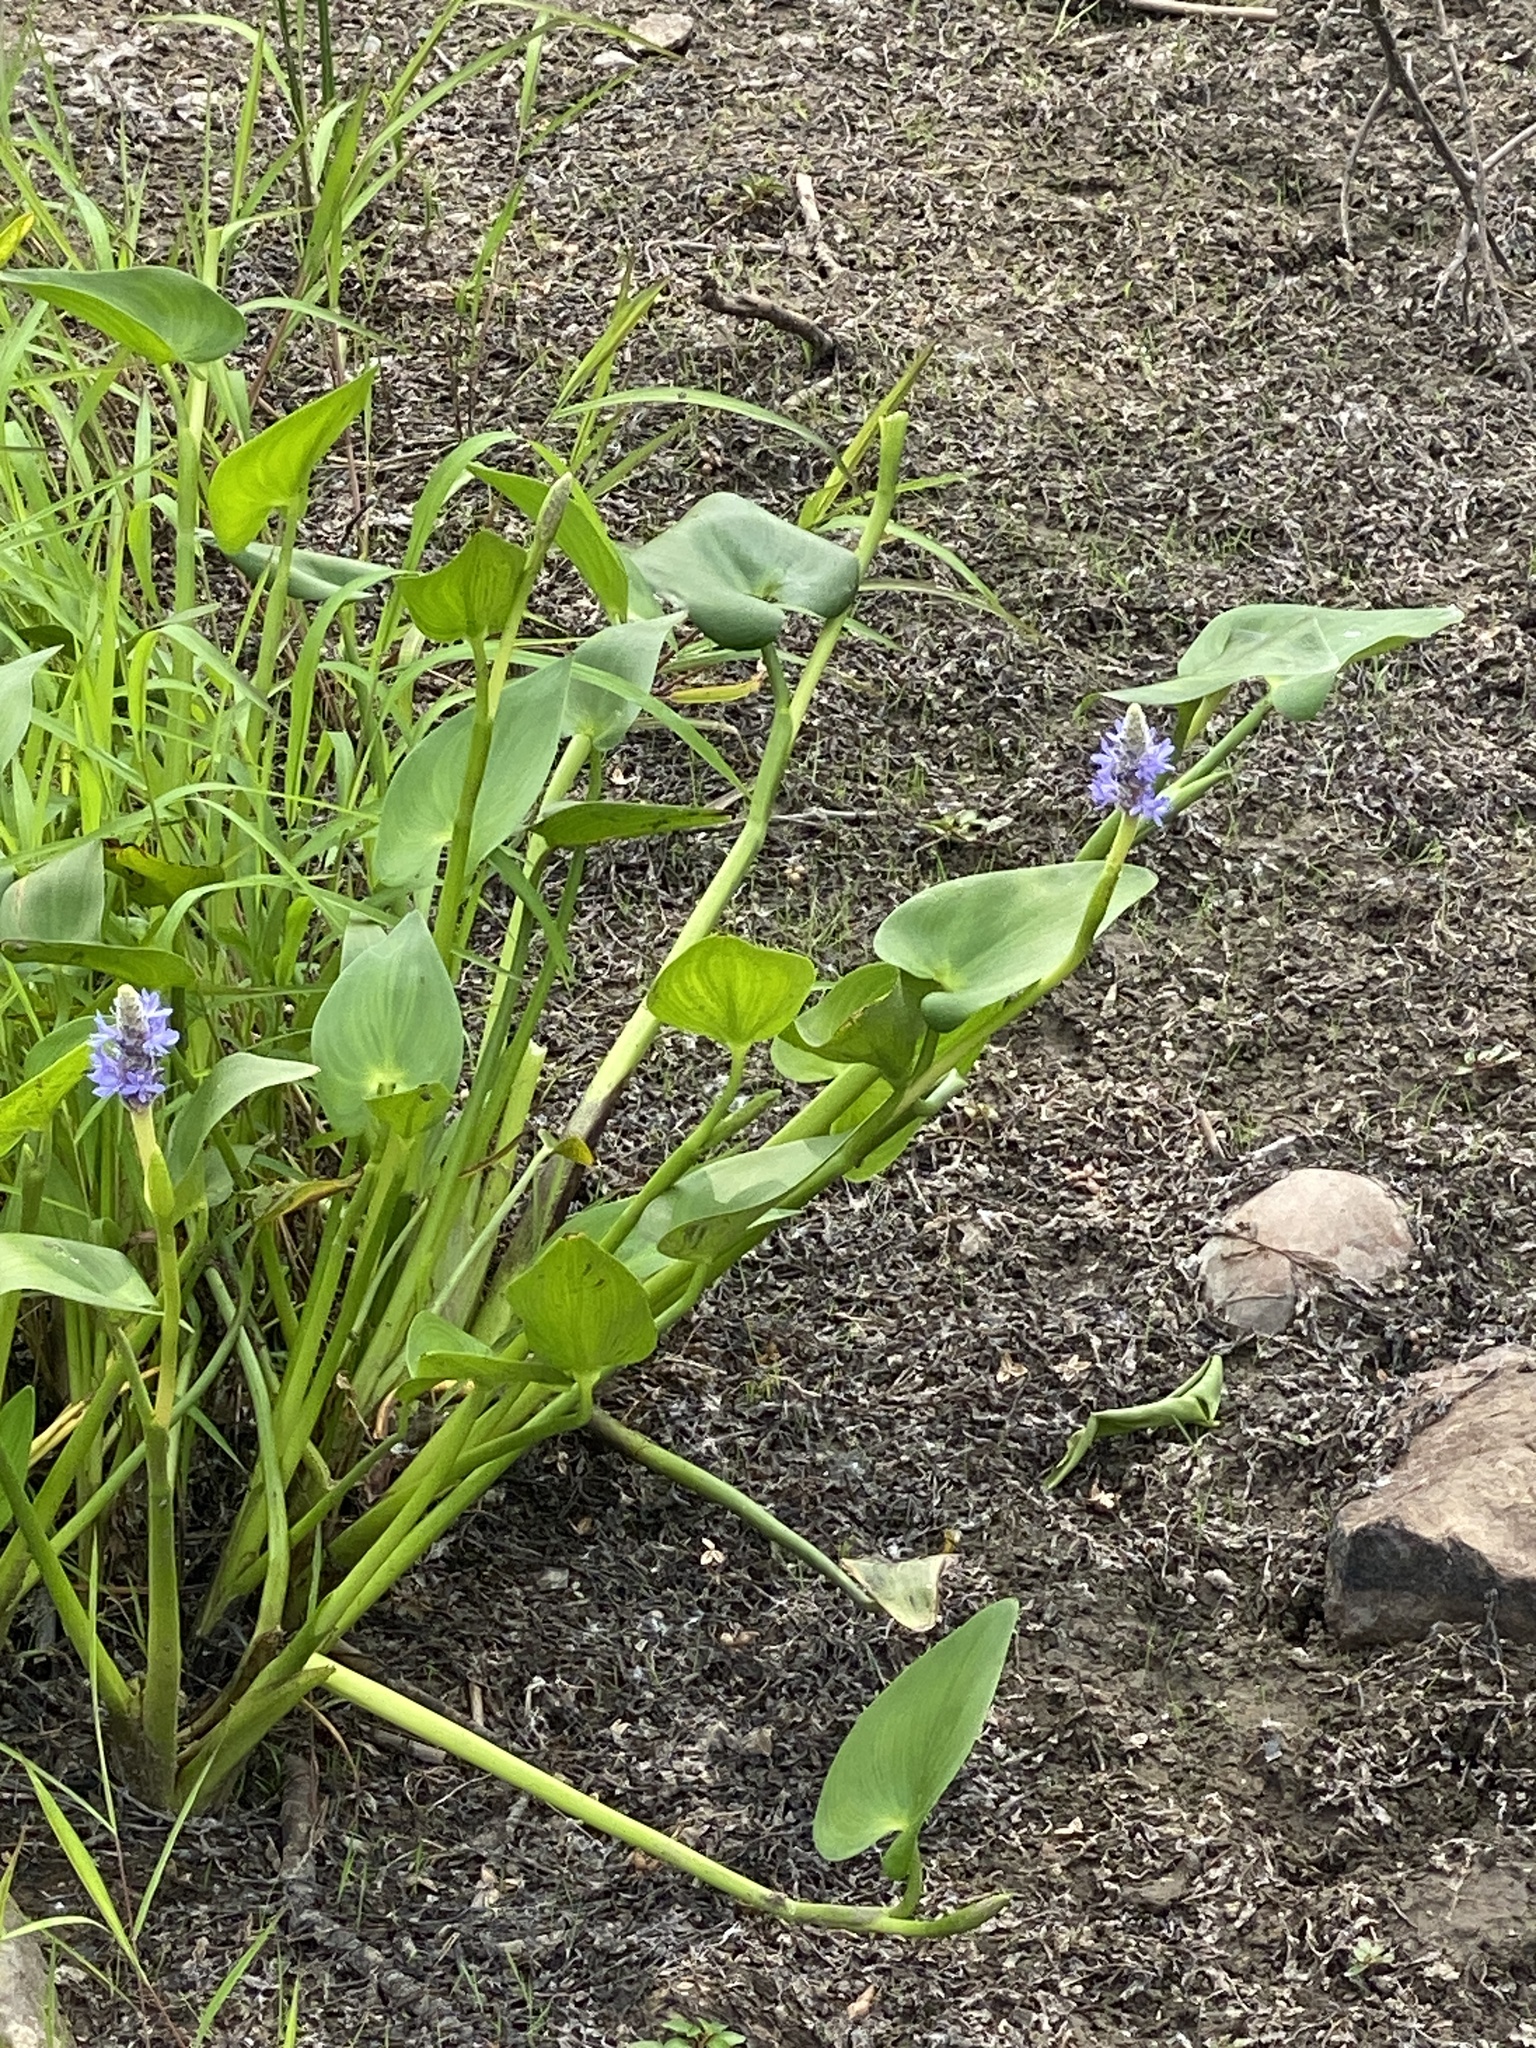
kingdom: Plantae
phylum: Tracheophyta
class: Liliopsida
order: Commelinales
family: Pontederiaceae
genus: Pontederia
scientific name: Pontederia cordata
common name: Pickerelweed
